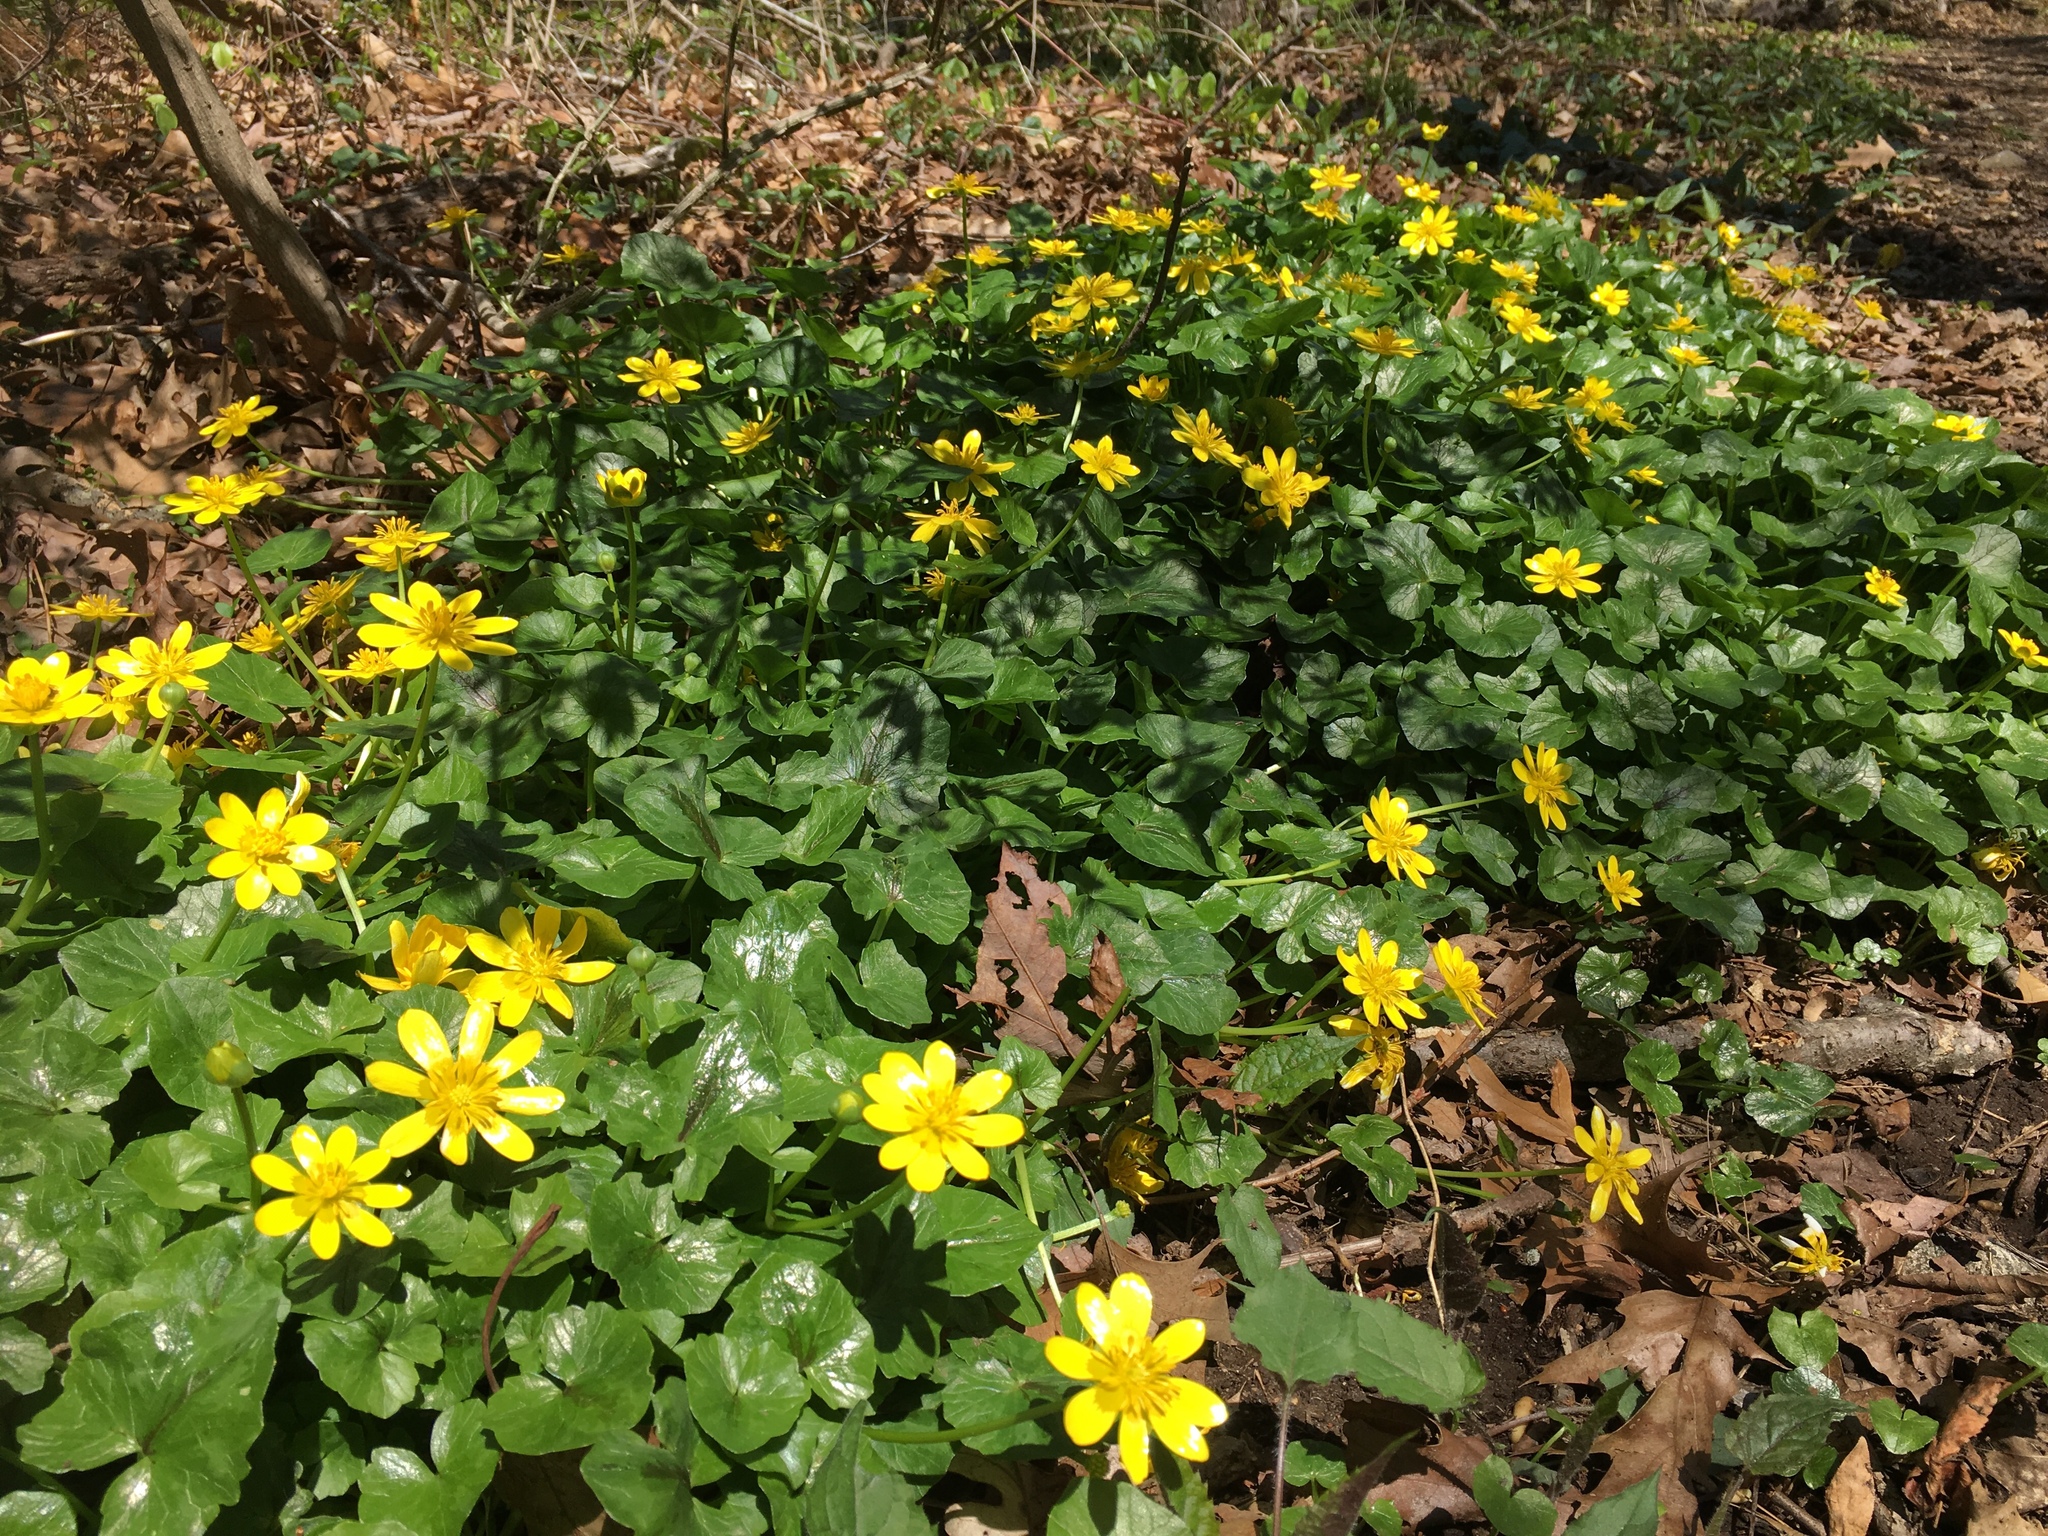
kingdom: Plantae
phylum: Tracheophyta
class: Magnoliopsida
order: Ranunculales
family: Ranunculaceae
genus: Ficaria
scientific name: Ficaria verna
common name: Lesser celandine
